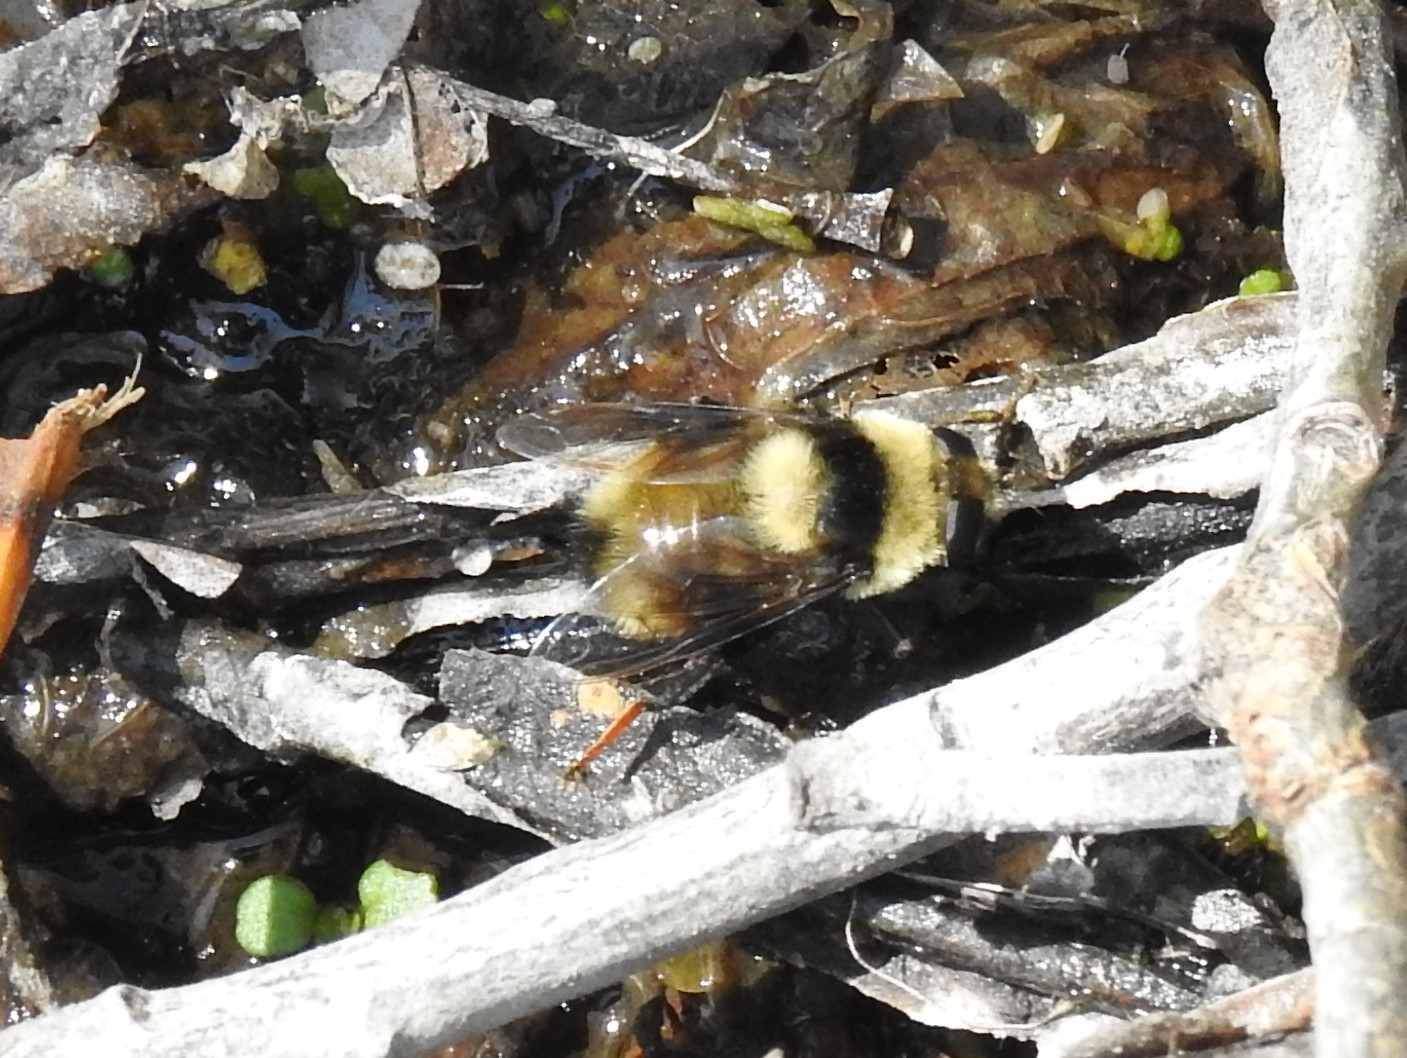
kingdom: Animalia
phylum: Arthropoda
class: Insecta
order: Diptera
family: Syrphidae
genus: Eristalis
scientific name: Eristalis flavipes
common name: Orange-legged drone fly
